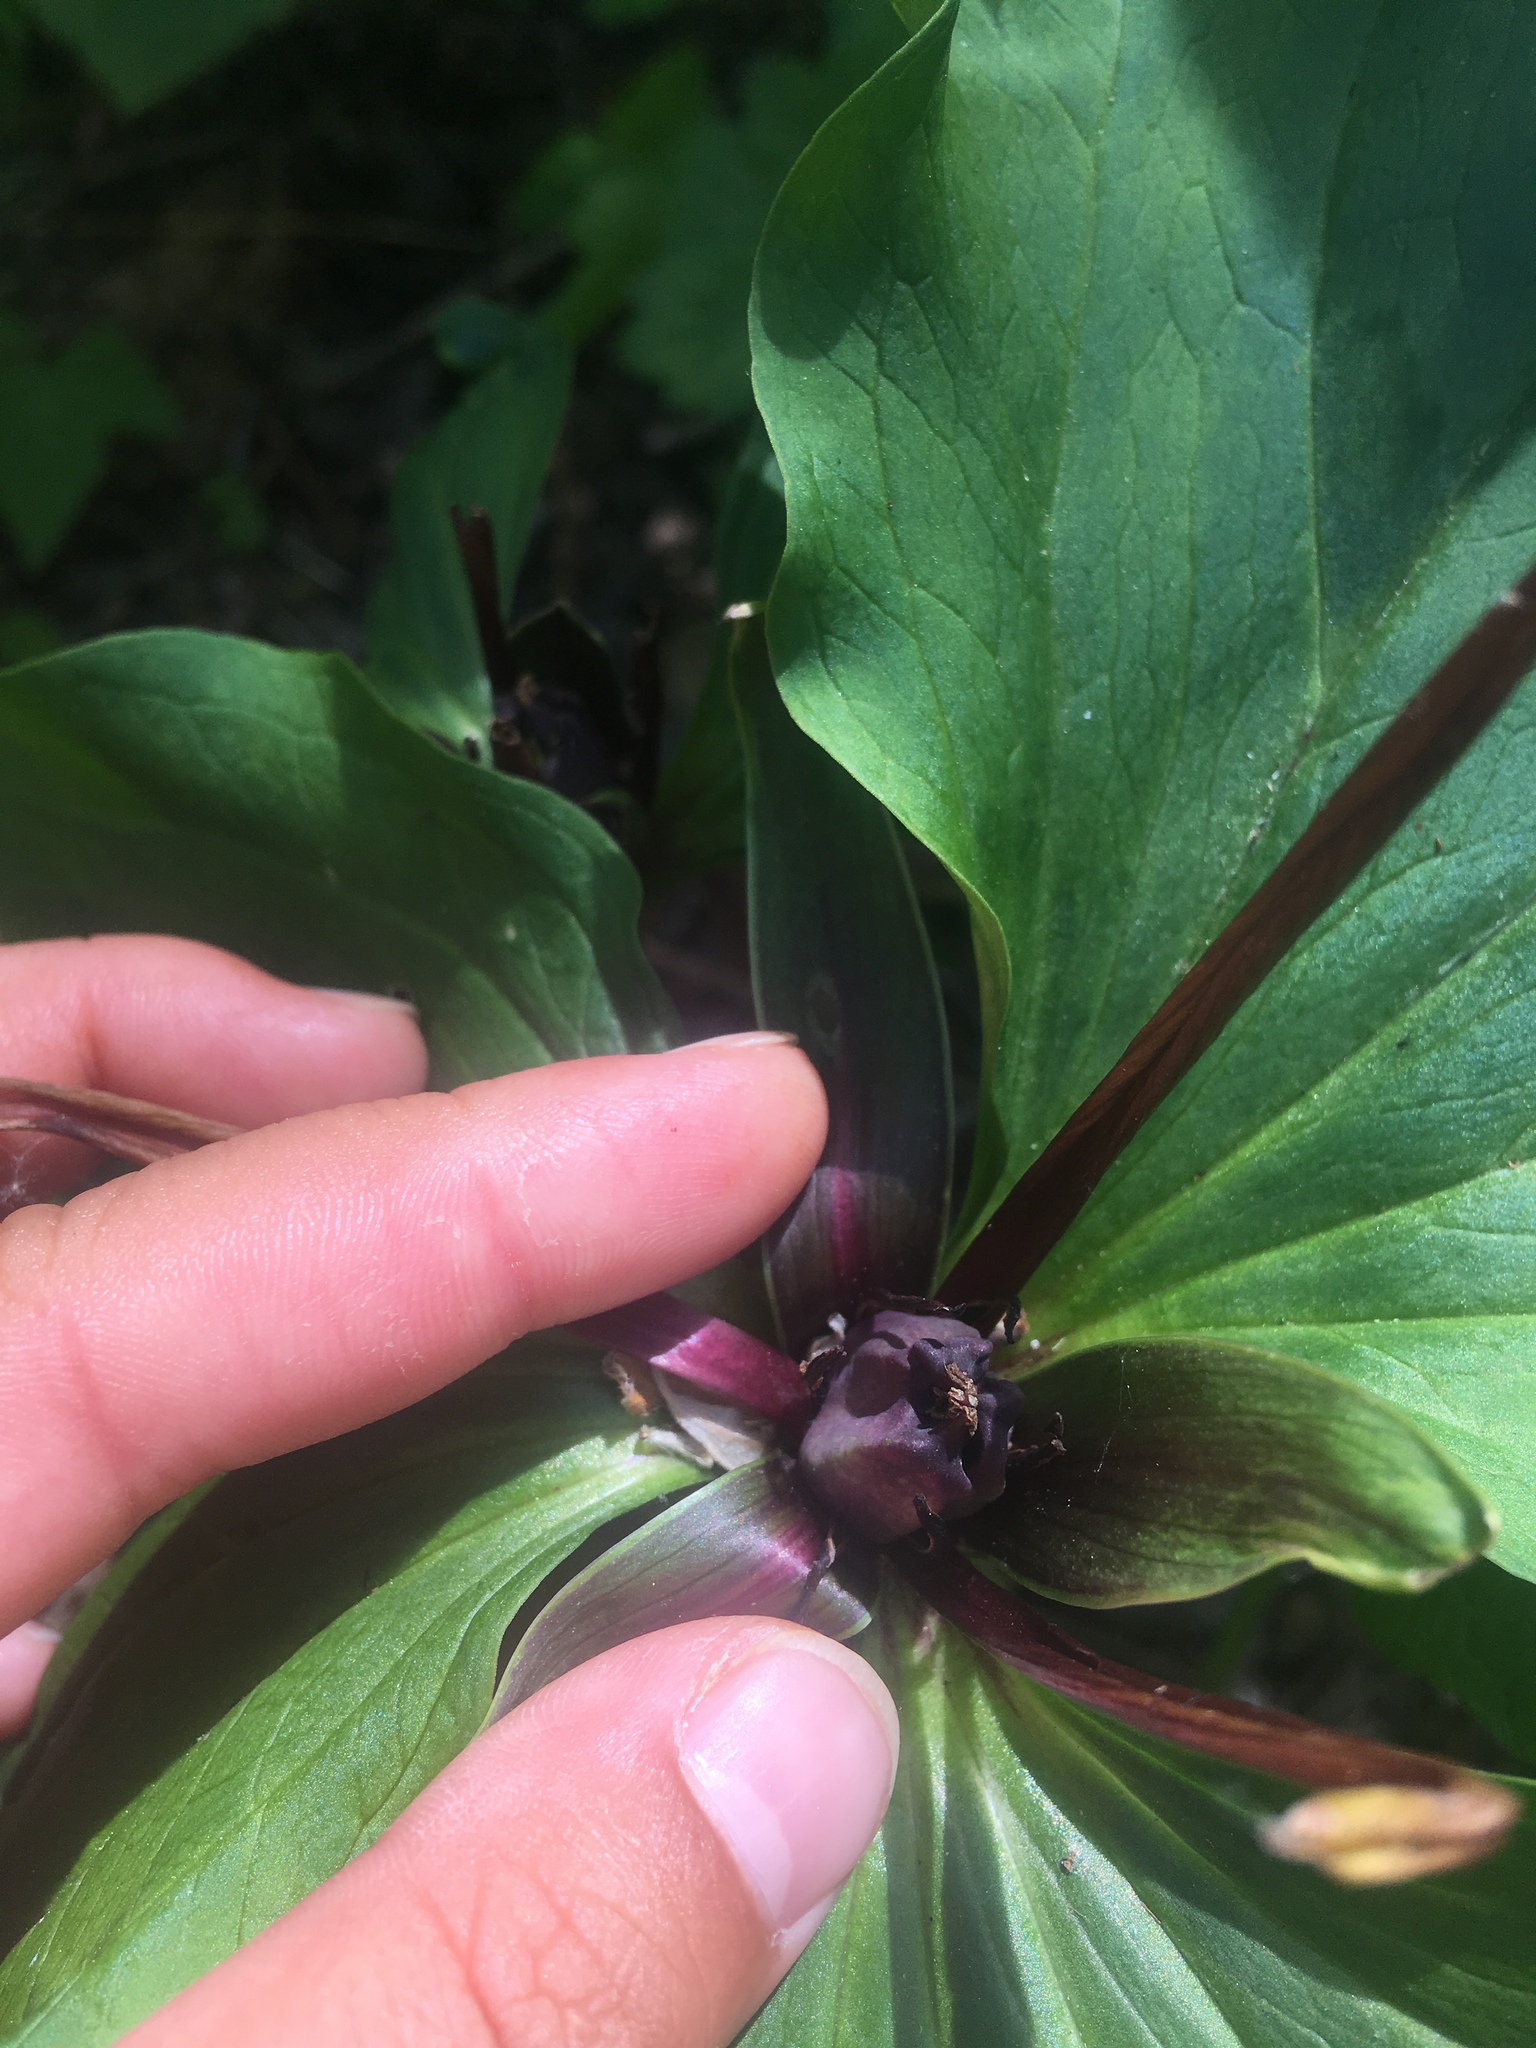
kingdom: Plantae
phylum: Tracheophyta
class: Liliopsida
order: Liliales
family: Melanthiaceae
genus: Trillium
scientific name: Trillium angustipetalum
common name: Narrow-petaled trillium
